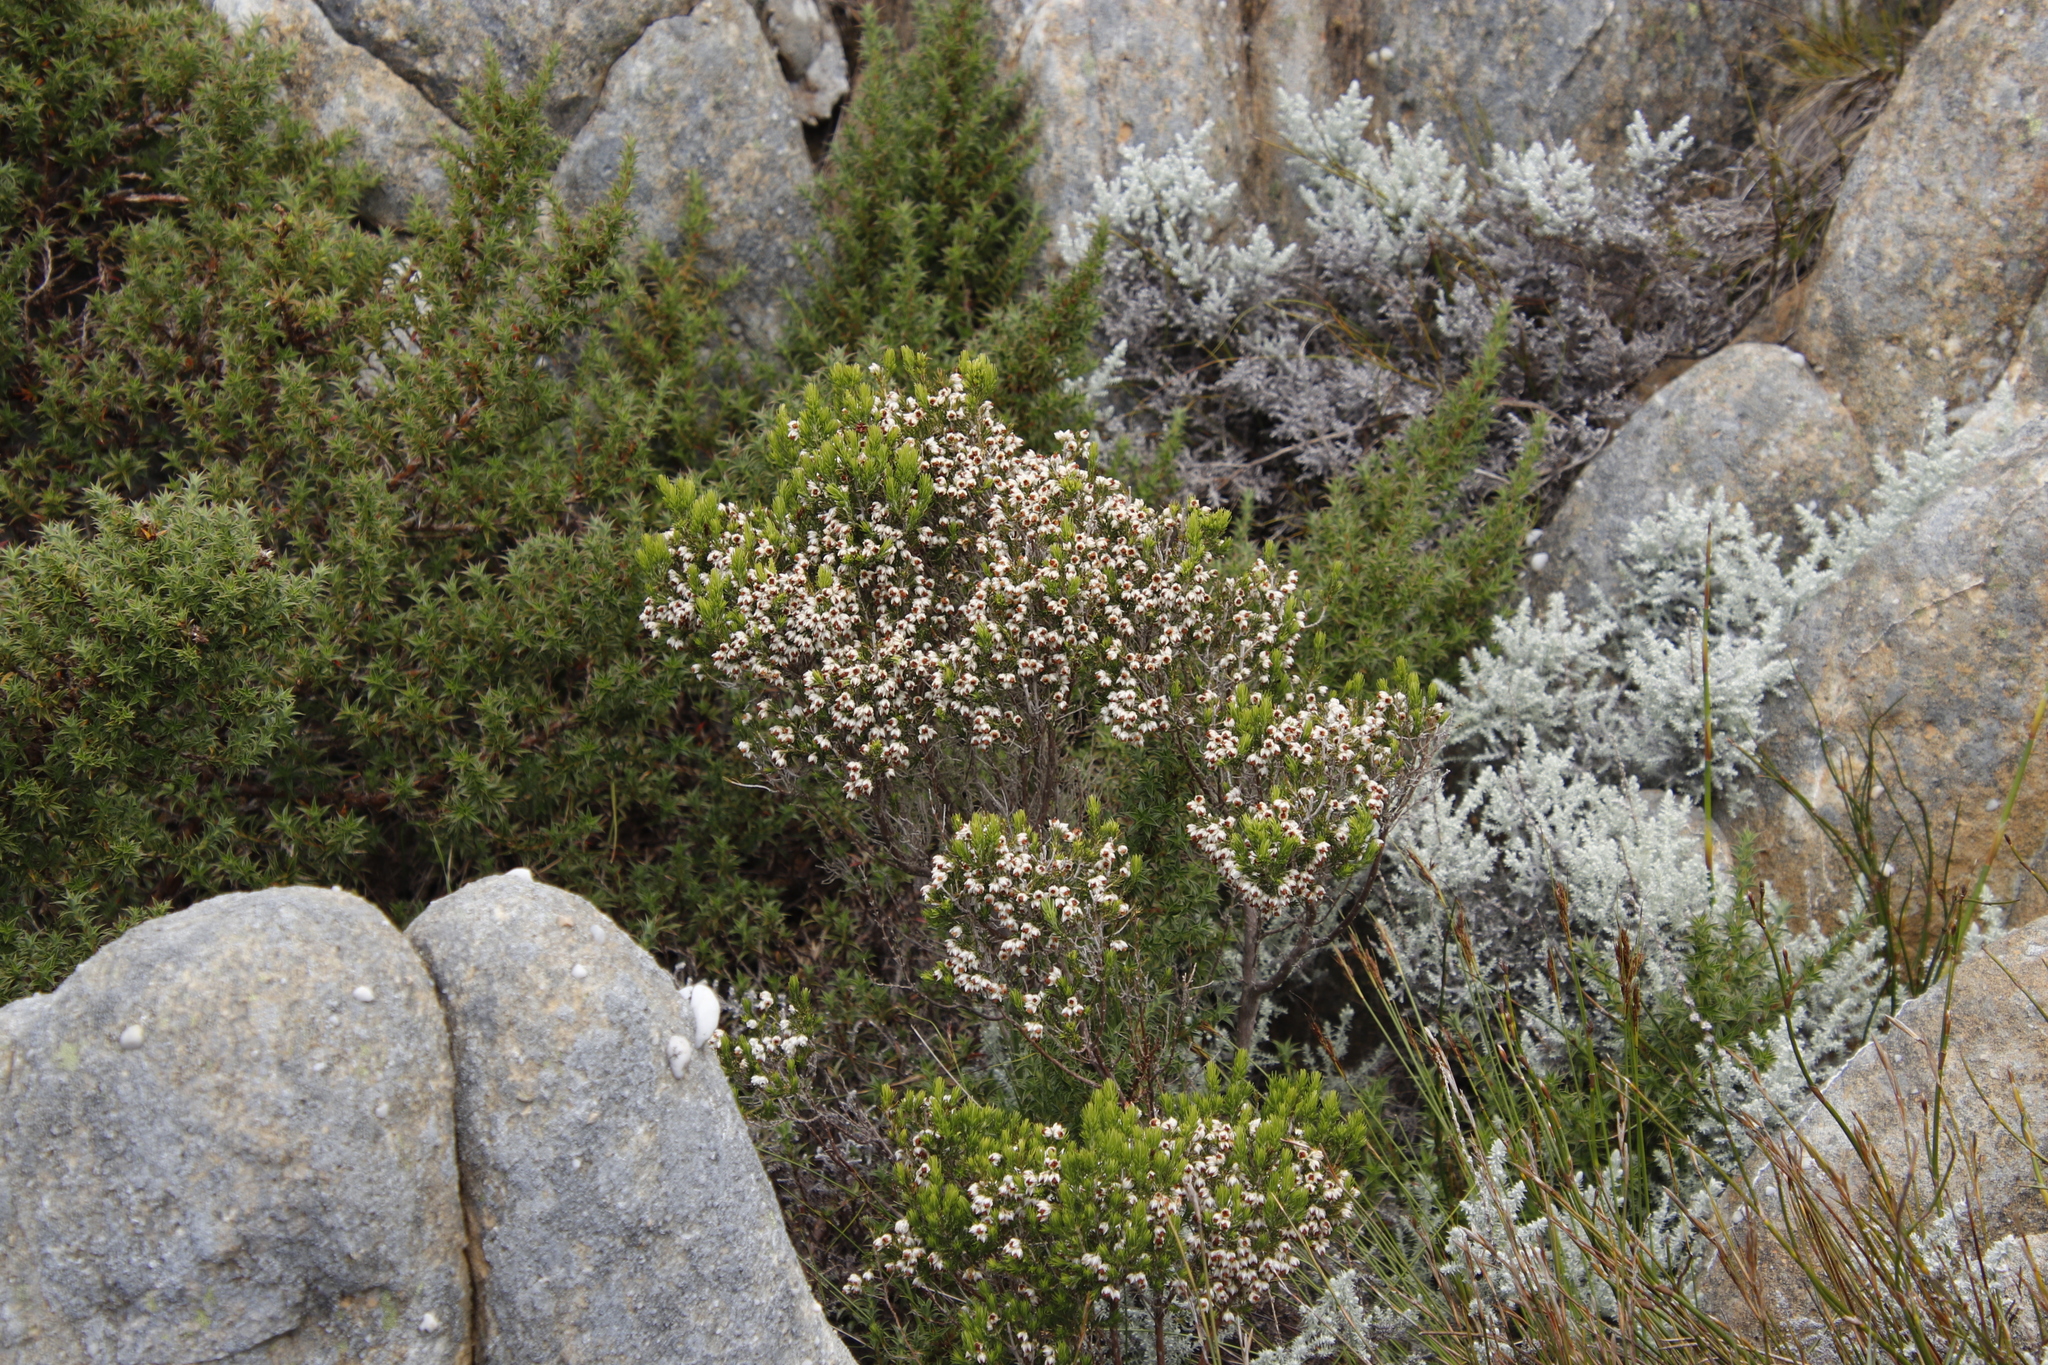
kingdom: Plantae
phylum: Tracheophyta
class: Magnoliopsida
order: Ericales
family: Ericaceae
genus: Erica
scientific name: Erica triflora
